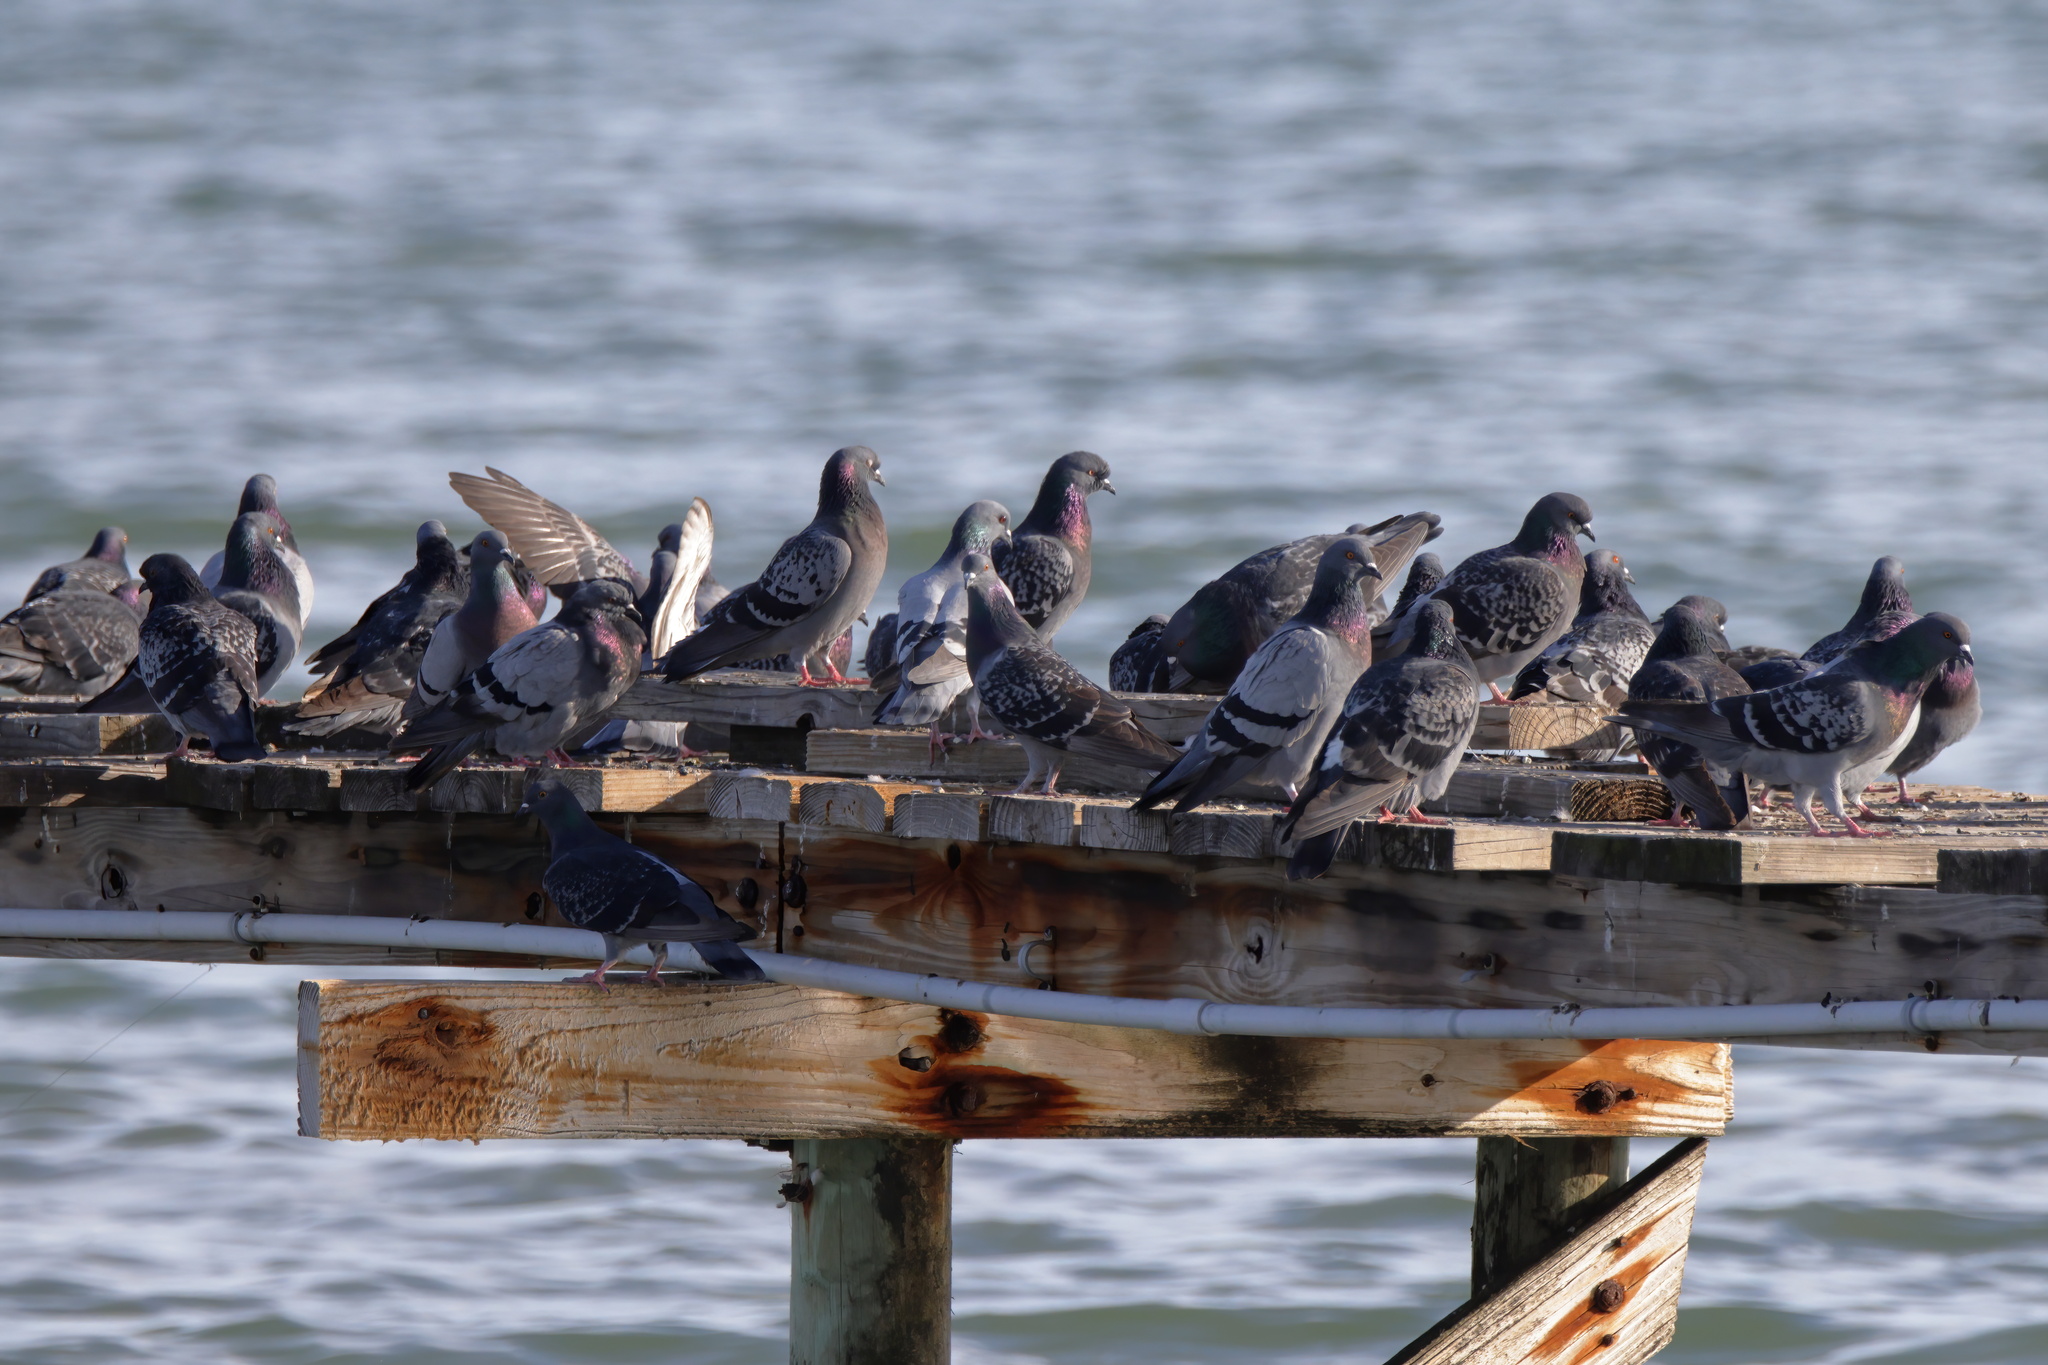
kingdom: Animalia
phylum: Chordata
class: Aves
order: Columbiformes
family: Columbidae
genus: Columba
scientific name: Columba livia
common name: Rock pigeon
